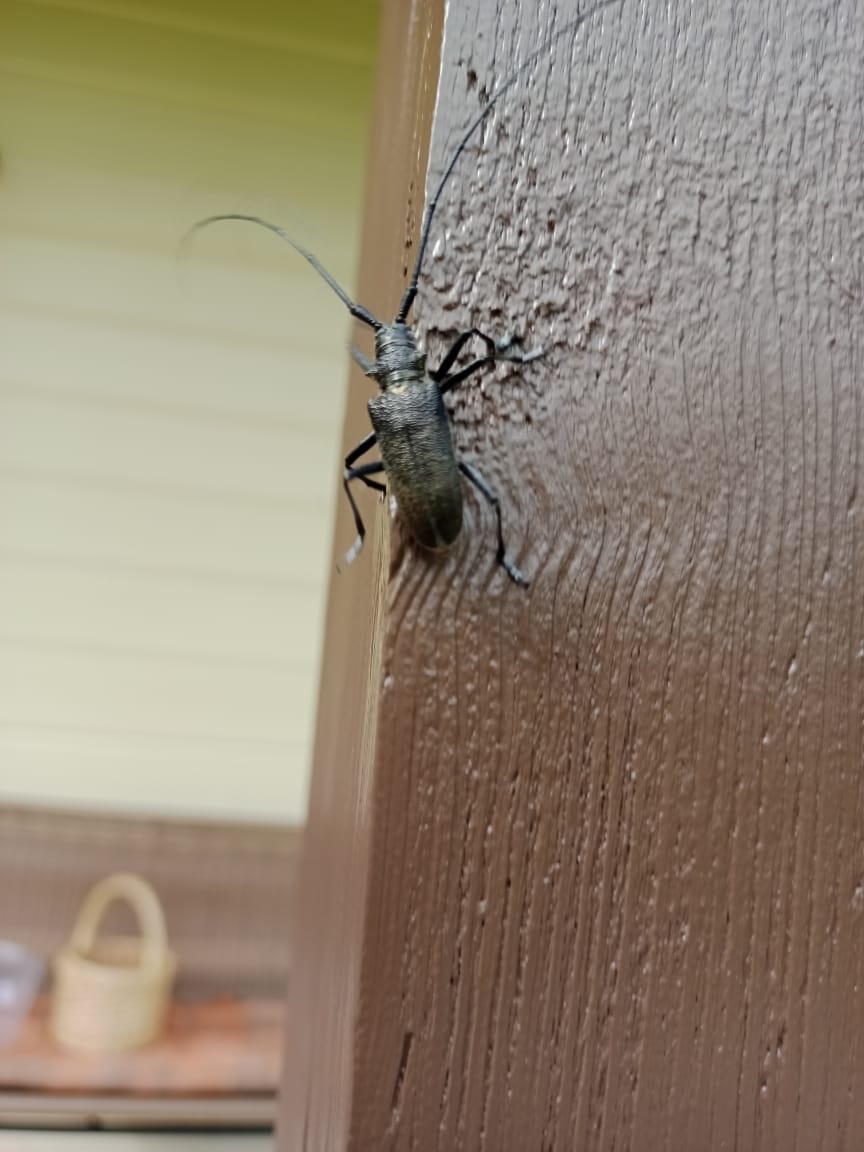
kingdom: Animalia
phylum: Arthropoda
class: Insecta
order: Coleoptera
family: Cerambycidae
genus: Monochamus
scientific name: Monochamus sutor
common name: Pine sawyer
